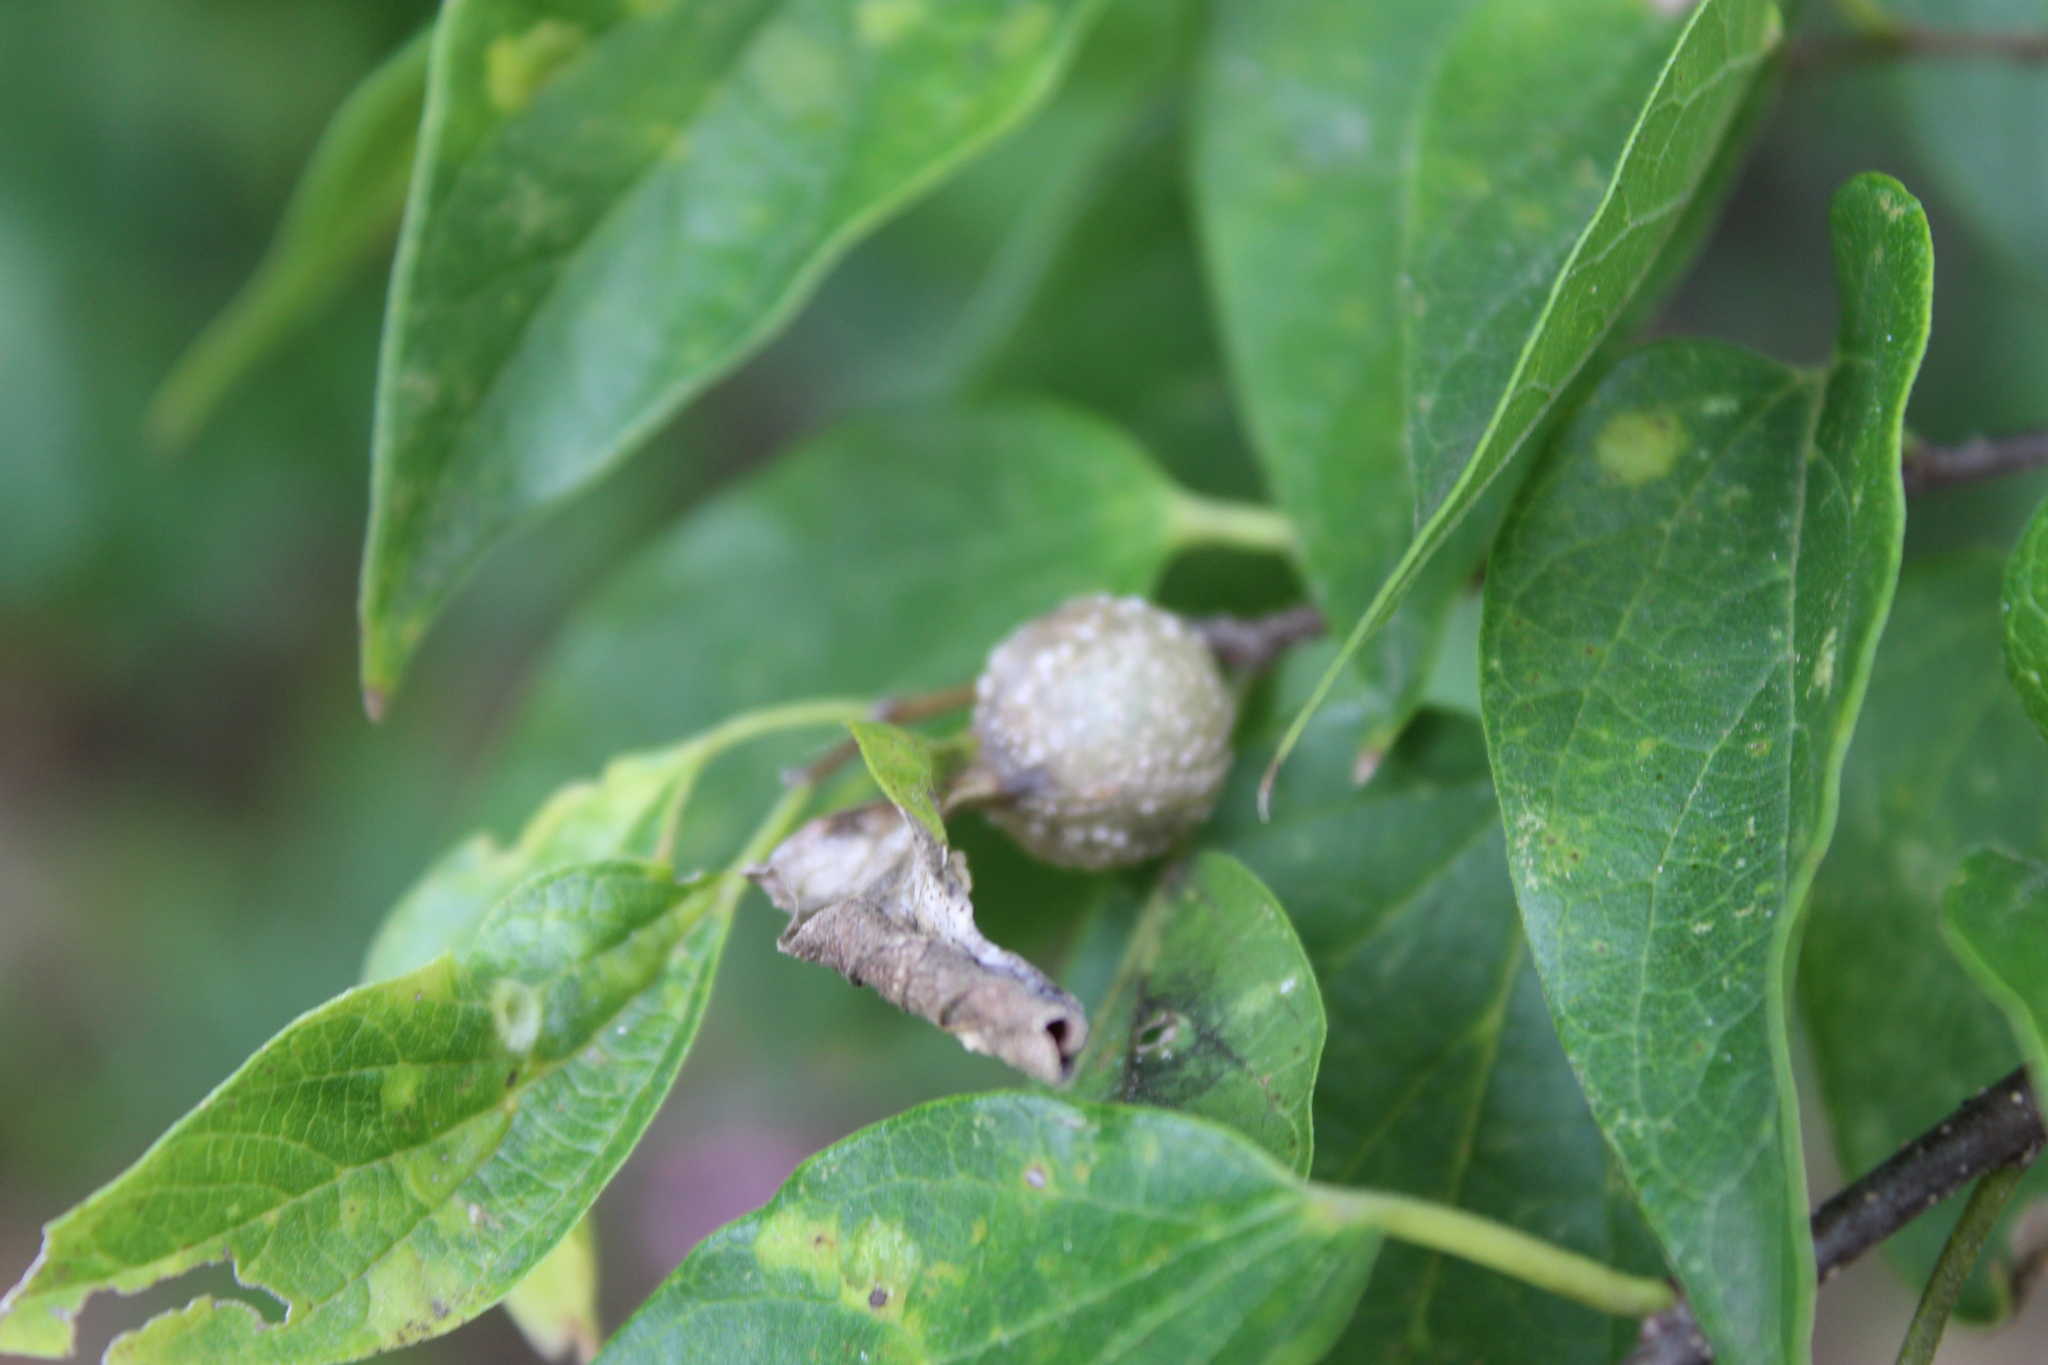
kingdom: Animalia
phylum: Arthropoda
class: Insecta
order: Hemiptera
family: Aphalaridae
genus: Pachypsylla
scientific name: Pachypsylla venusta
